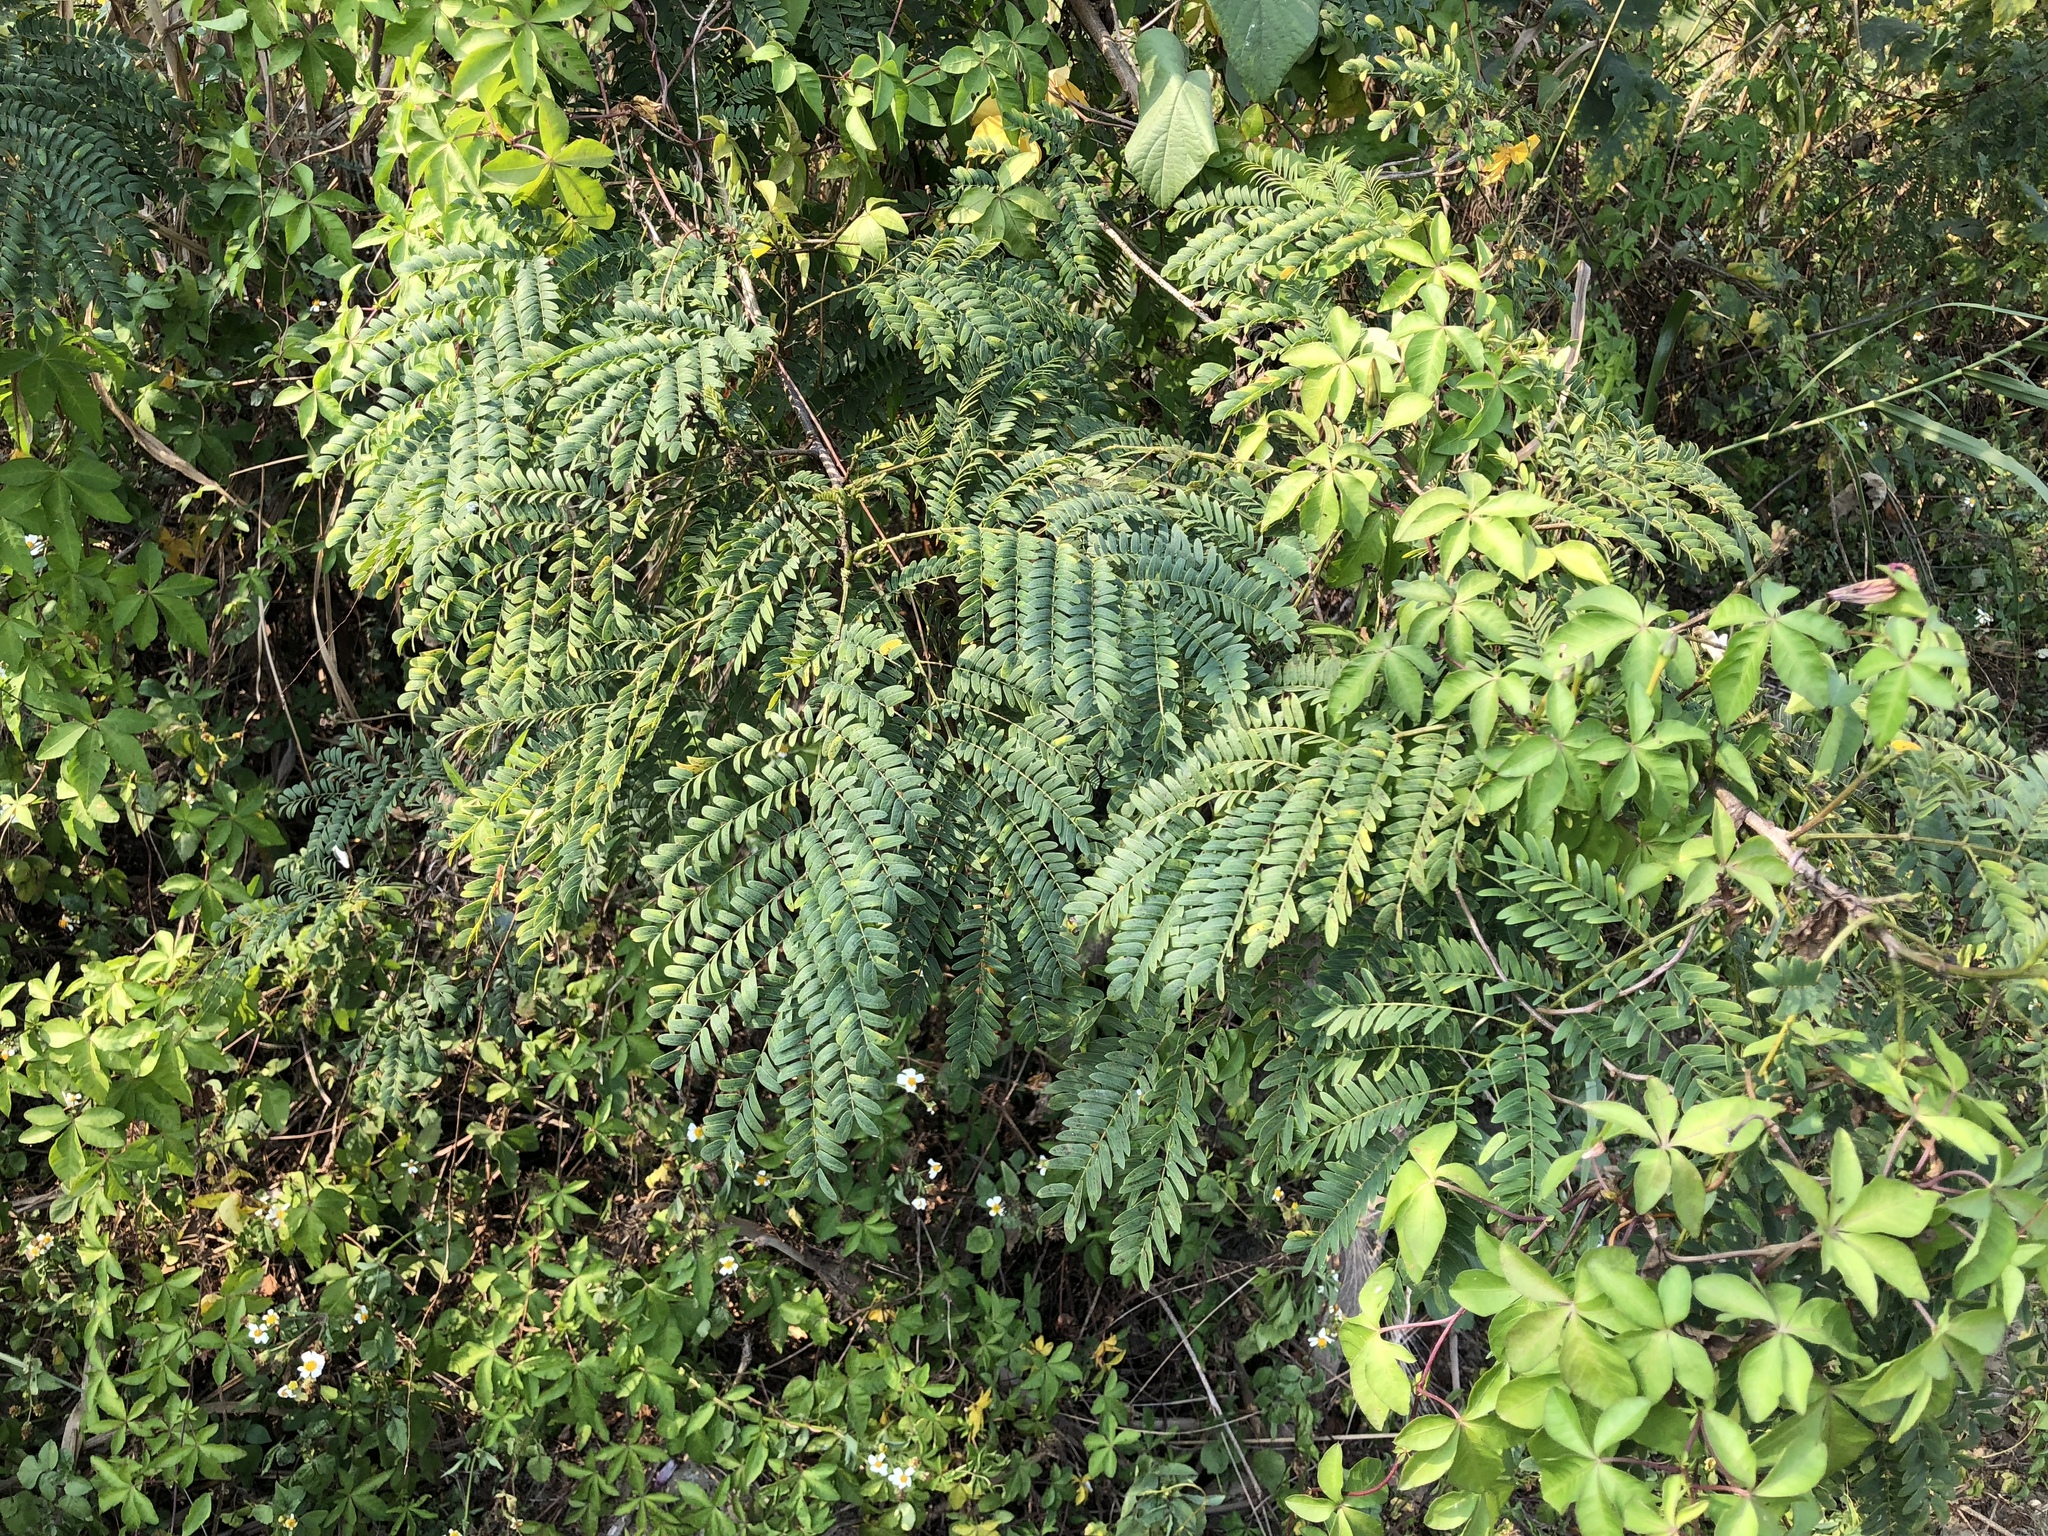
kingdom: Plantae
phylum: Tracheophyta
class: Magnoliopsida
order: Fabales
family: Fabaceae
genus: Leucaena
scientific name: Leucaena leucocephala
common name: White leadtree
